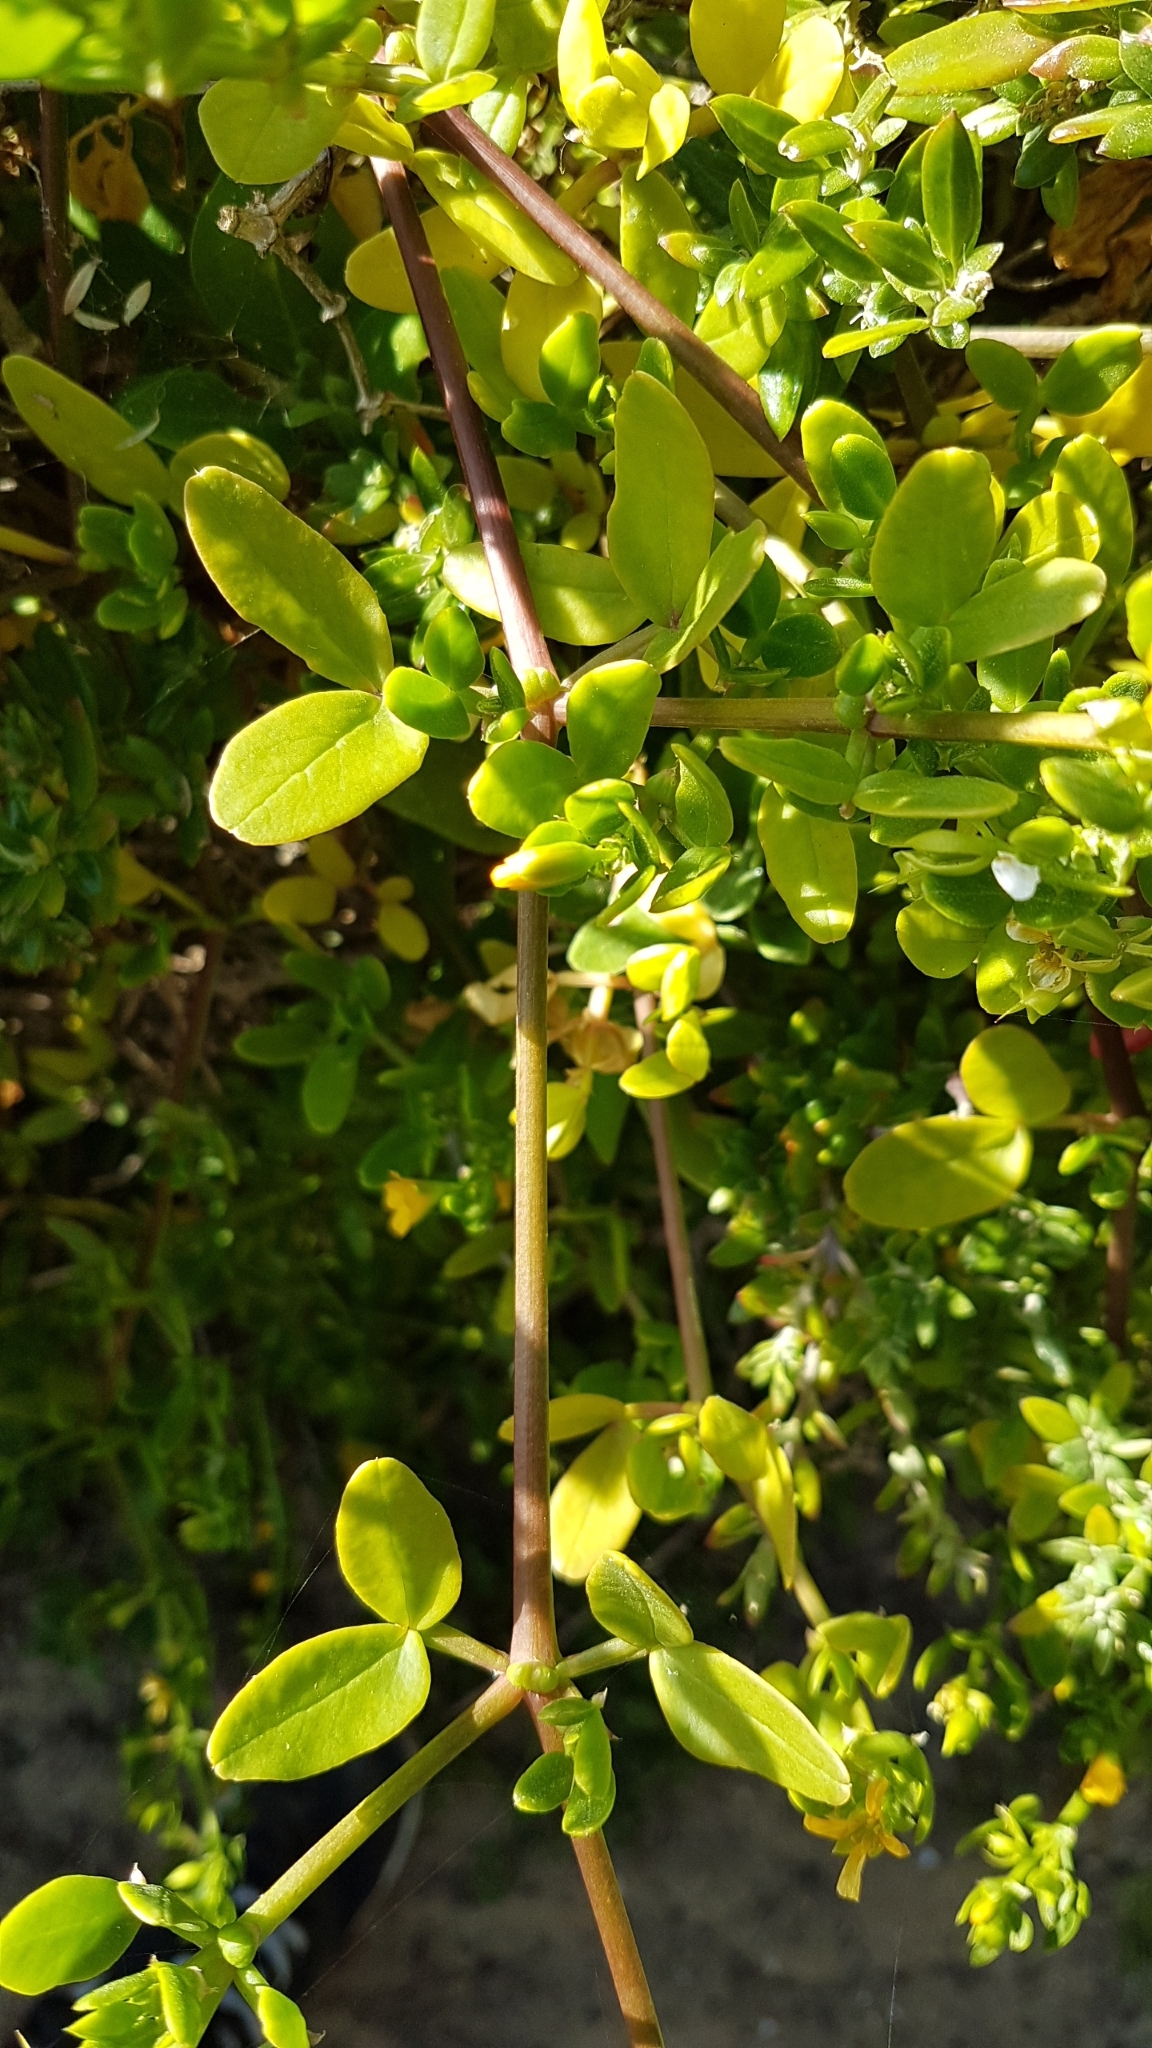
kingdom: Plantae
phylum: Tracheophyta
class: Magnoliopsida
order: Zygophyllales
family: Zygophyllaceae
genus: Roepera
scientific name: Roepera billardieri
